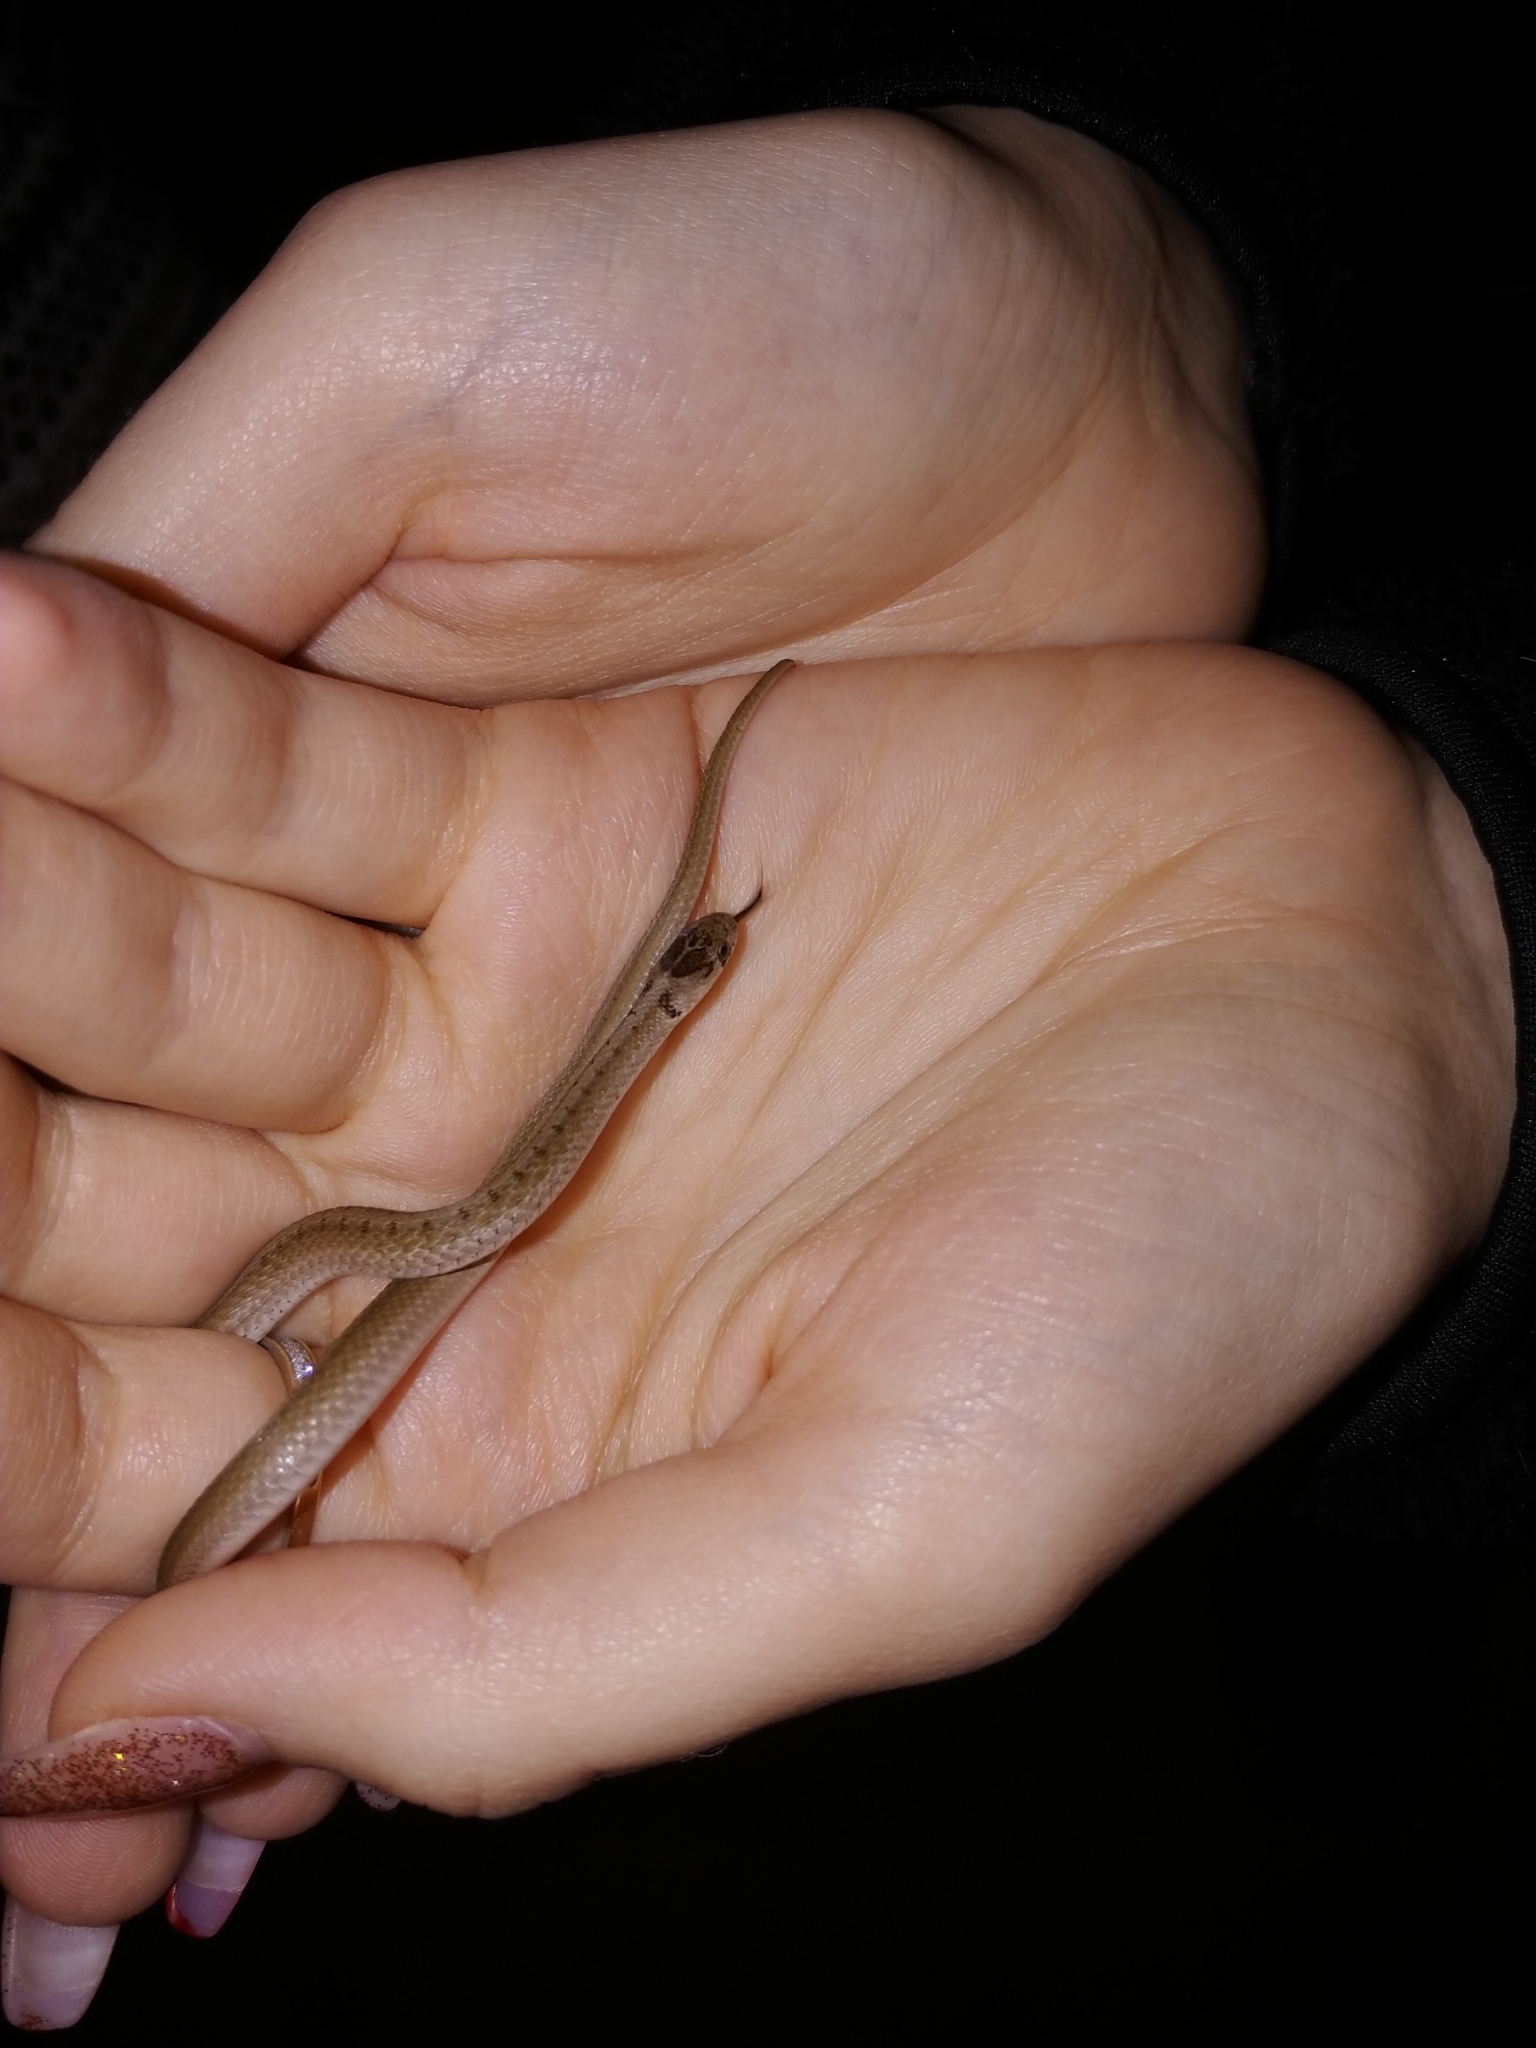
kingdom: Animalia
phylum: Chordata
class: Squamata
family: Colubridae
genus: Storeria
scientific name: Storeria dekayi
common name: (dekay’s) brown snake
